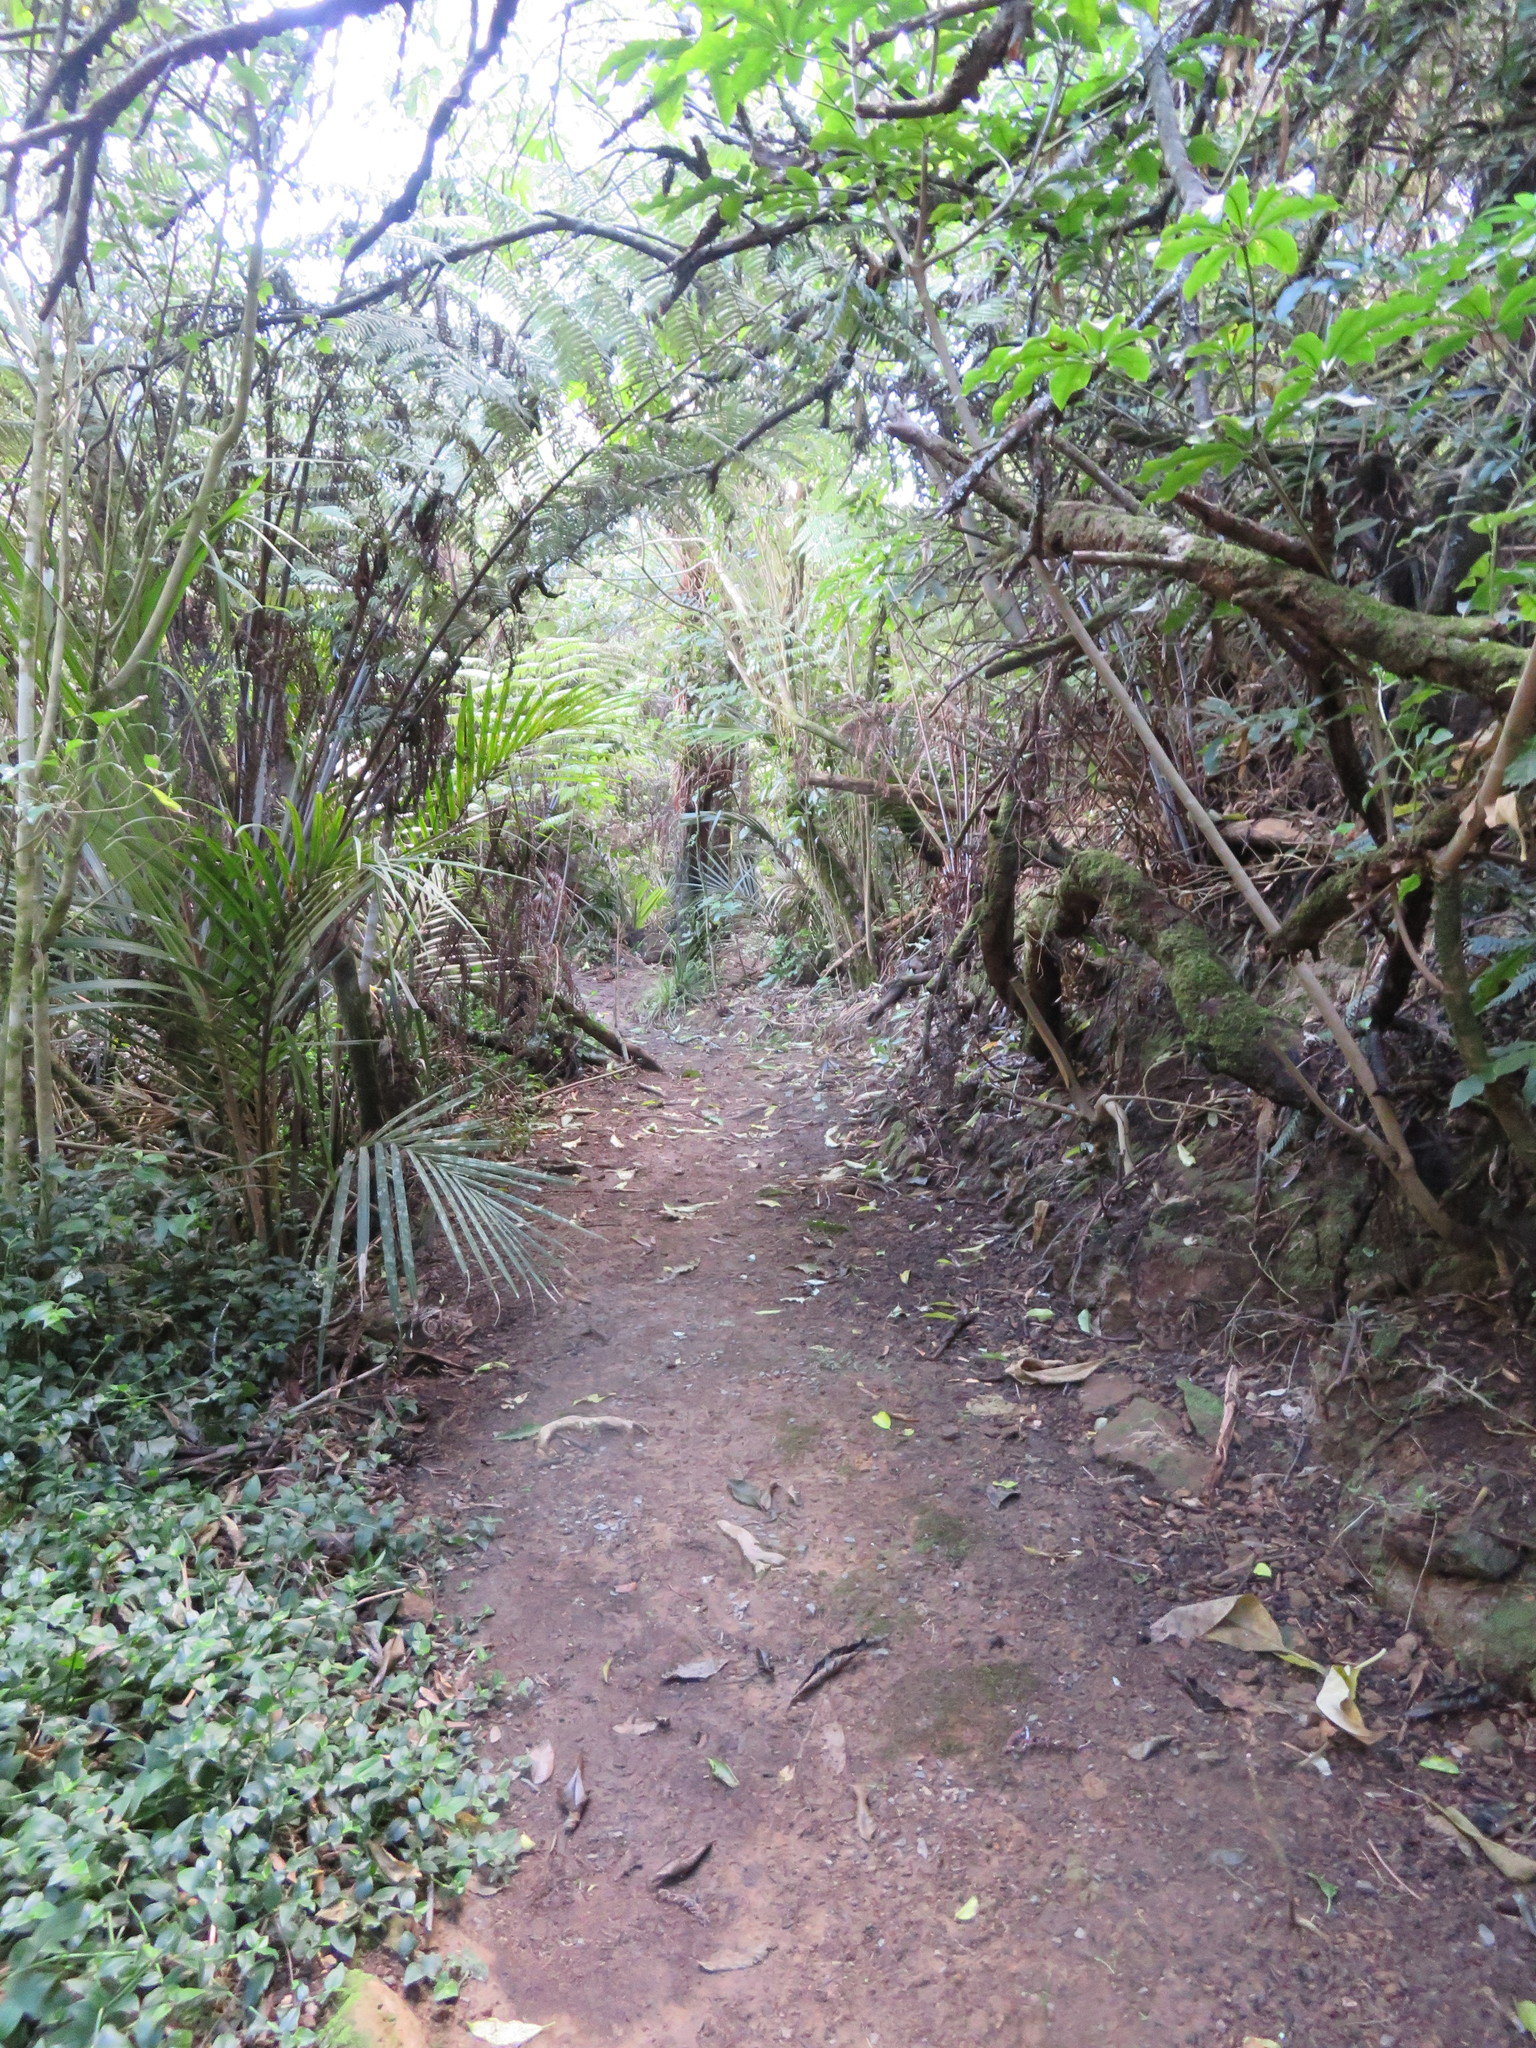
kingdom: Plantae
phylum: Tracheophyta
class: Liliopsida
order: Commelinales
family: Commelinaceae
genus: Tradescantia
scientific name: Tradescantia fluminensis
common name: Wandering-jew
